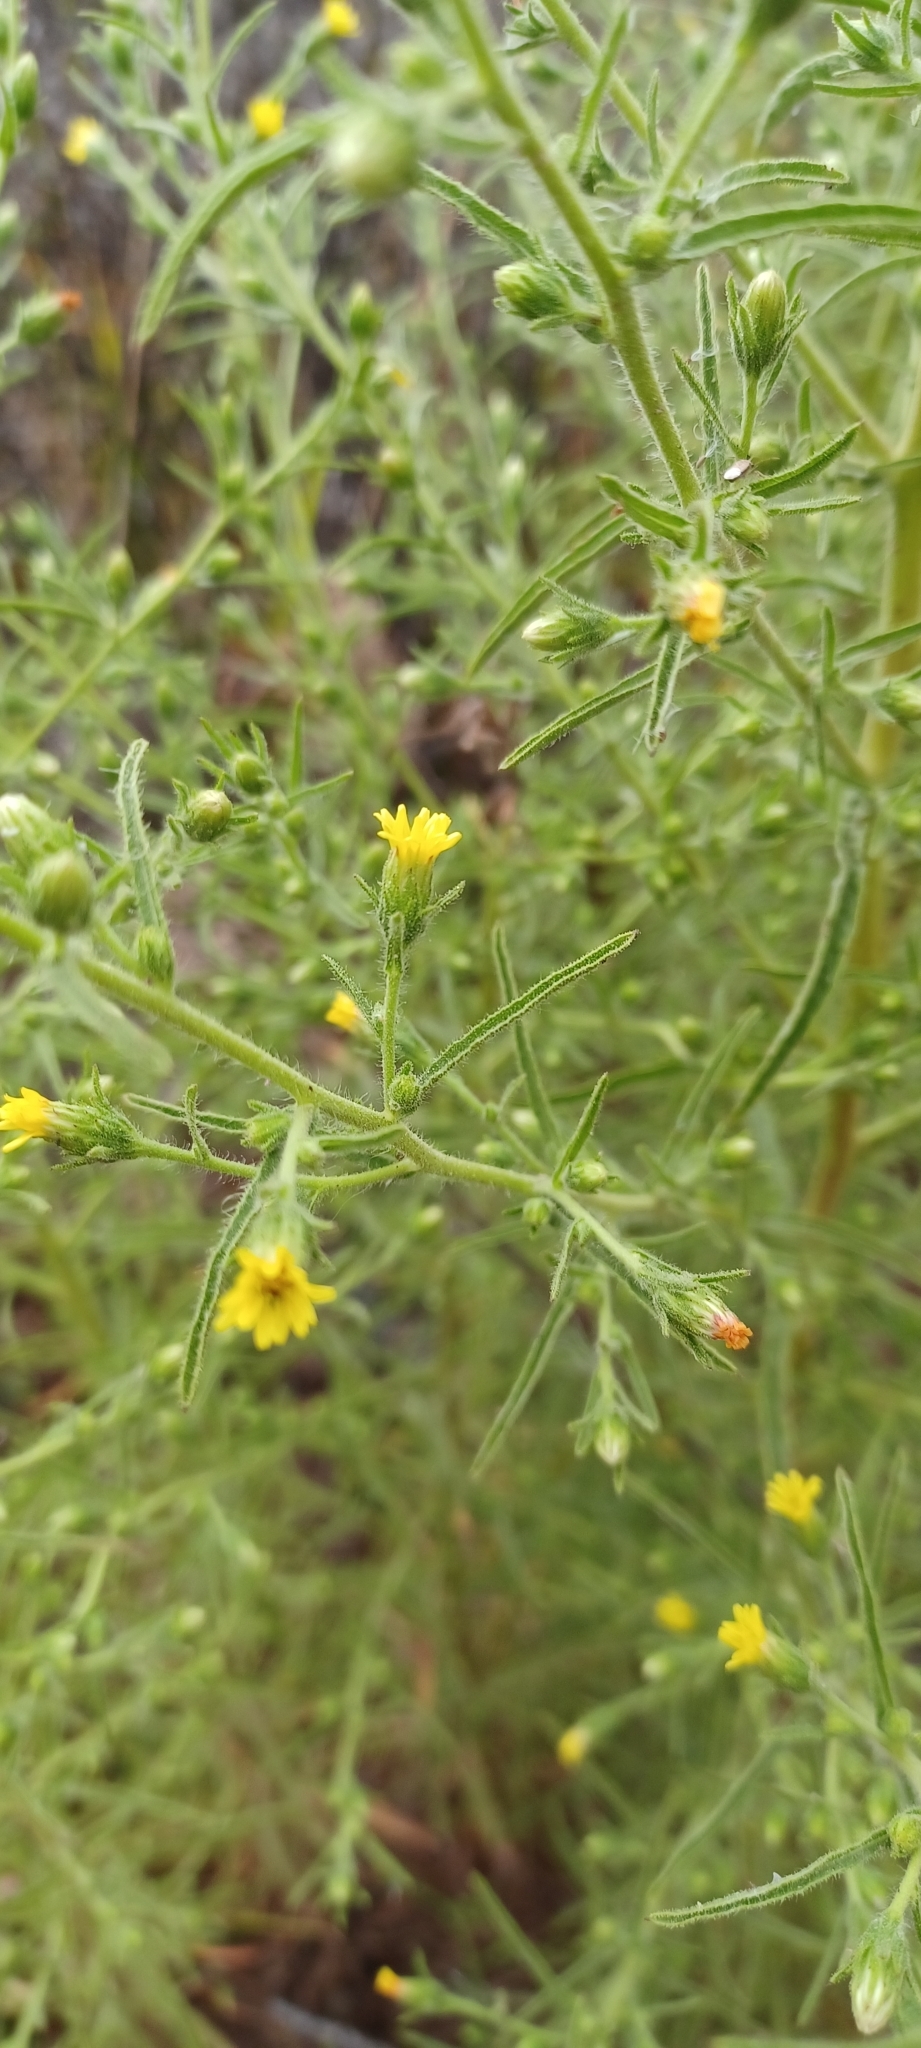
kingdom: Plantae
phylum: Tracheophyta
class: Magnoliopsida
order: Asterales
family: Asteraceae
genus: Dittrichia
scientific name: Dittrichia graveolens
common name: Stinking fleabane
